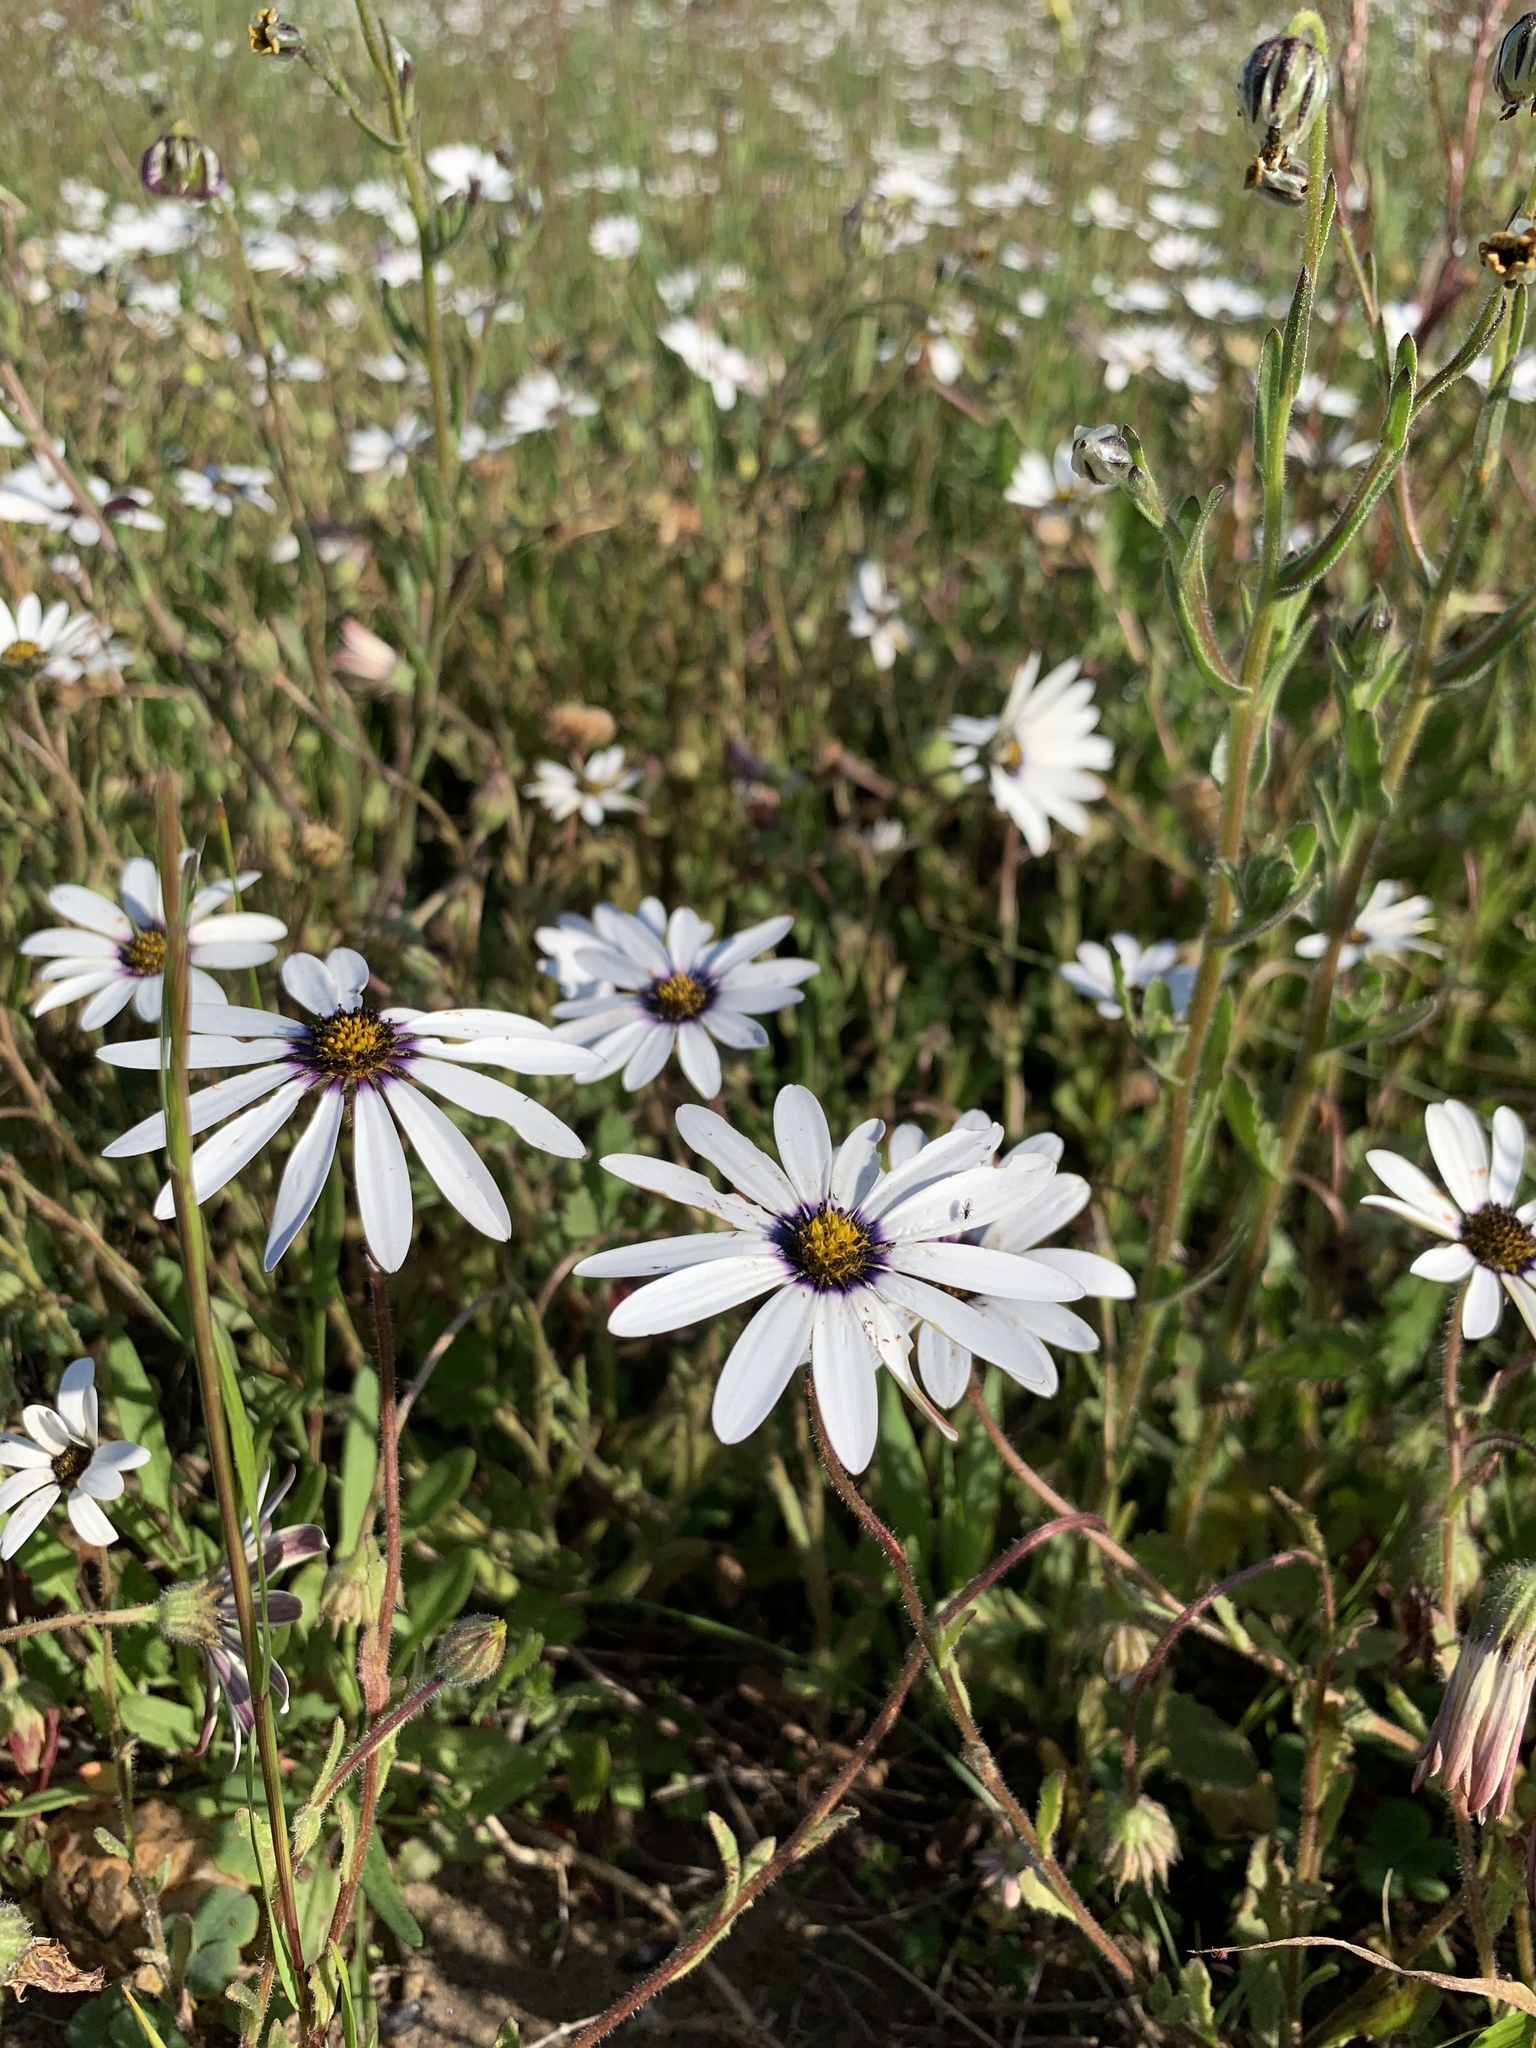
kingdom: Plantae
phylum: Tracheophyta
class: Magnoliopsida
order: Asterales
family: Asteraceae
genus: Dimorphotheca
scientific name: Dimorphotheca pluvialis
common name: Weather prophet
